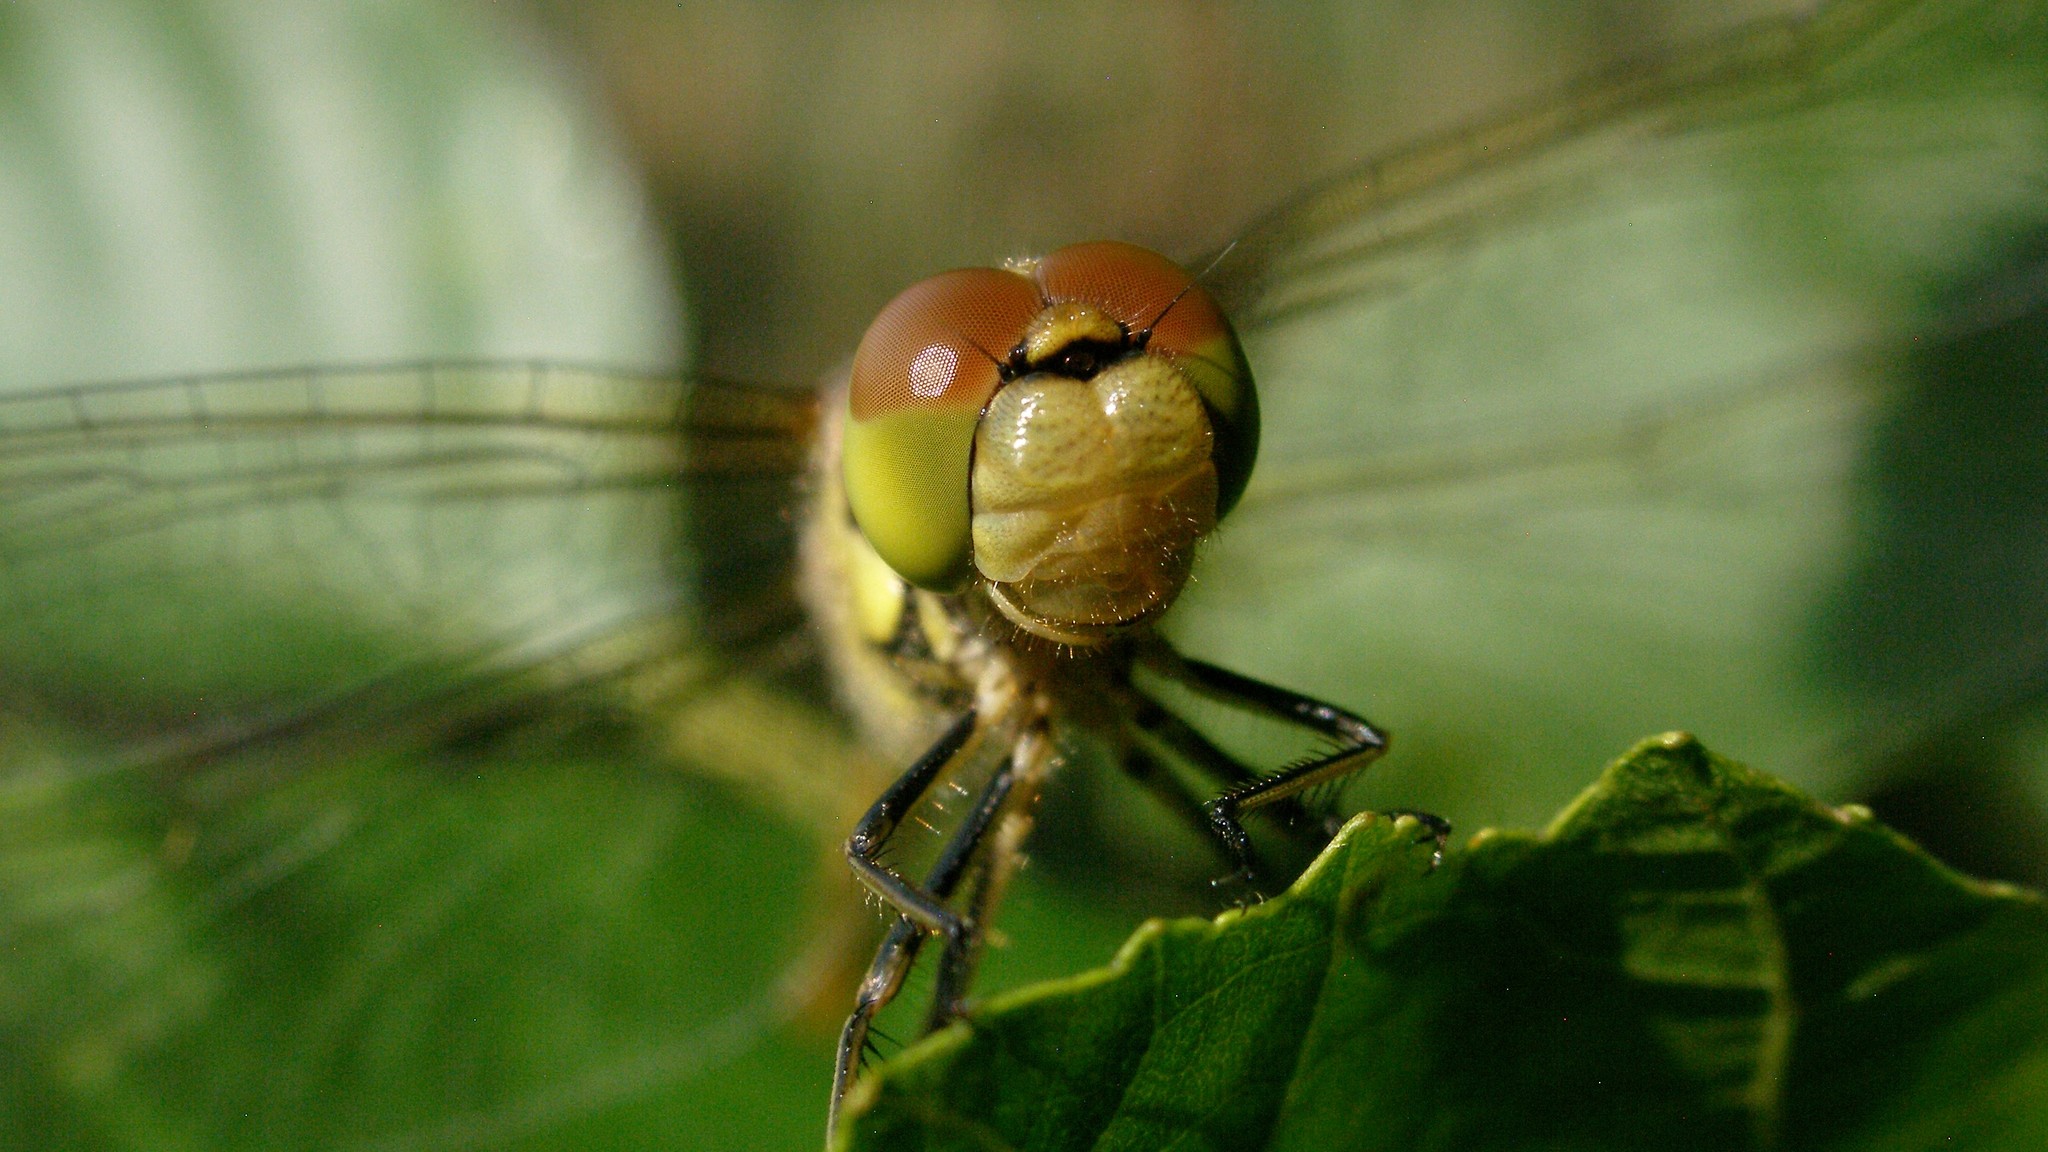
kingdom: Animalia
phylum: Arthropoda
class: Insecta
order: Odonata
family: Libellulidae
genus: Sympetrum
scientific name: Sympetrum striolatum
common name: Common darter
